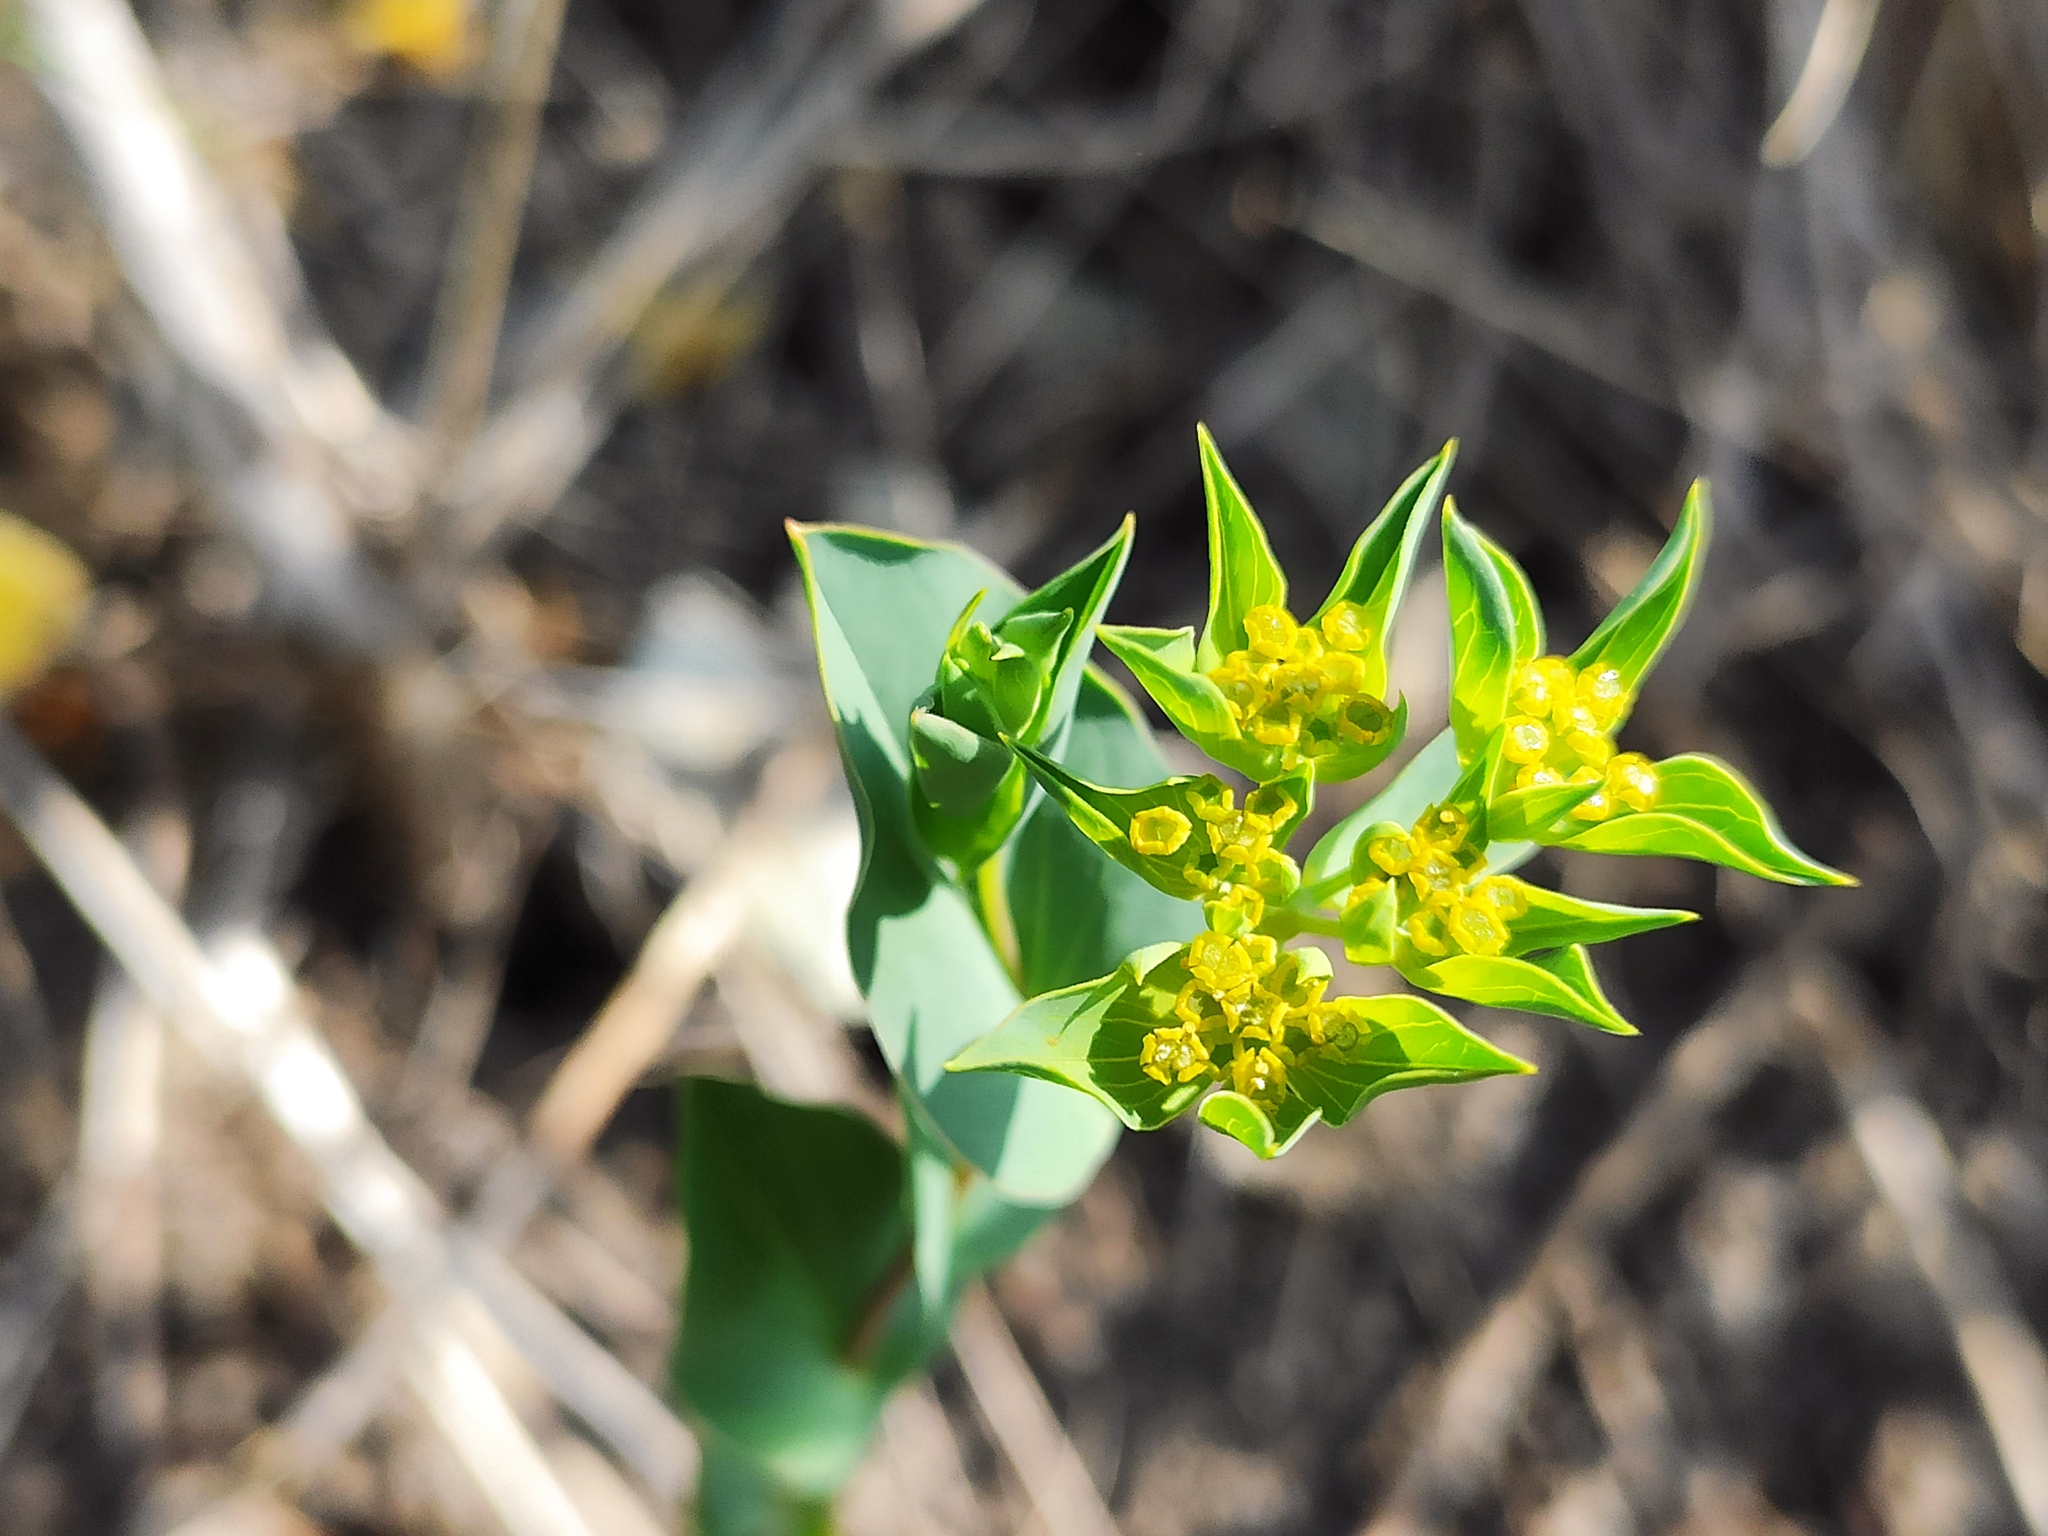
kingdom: Plantae
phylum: Tracheophyta
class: Magnoliopsida
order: Apiales
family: Apiaceae
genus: Bupleurum
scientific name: Bupleurum rotundifolium
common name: Thorow-wax
